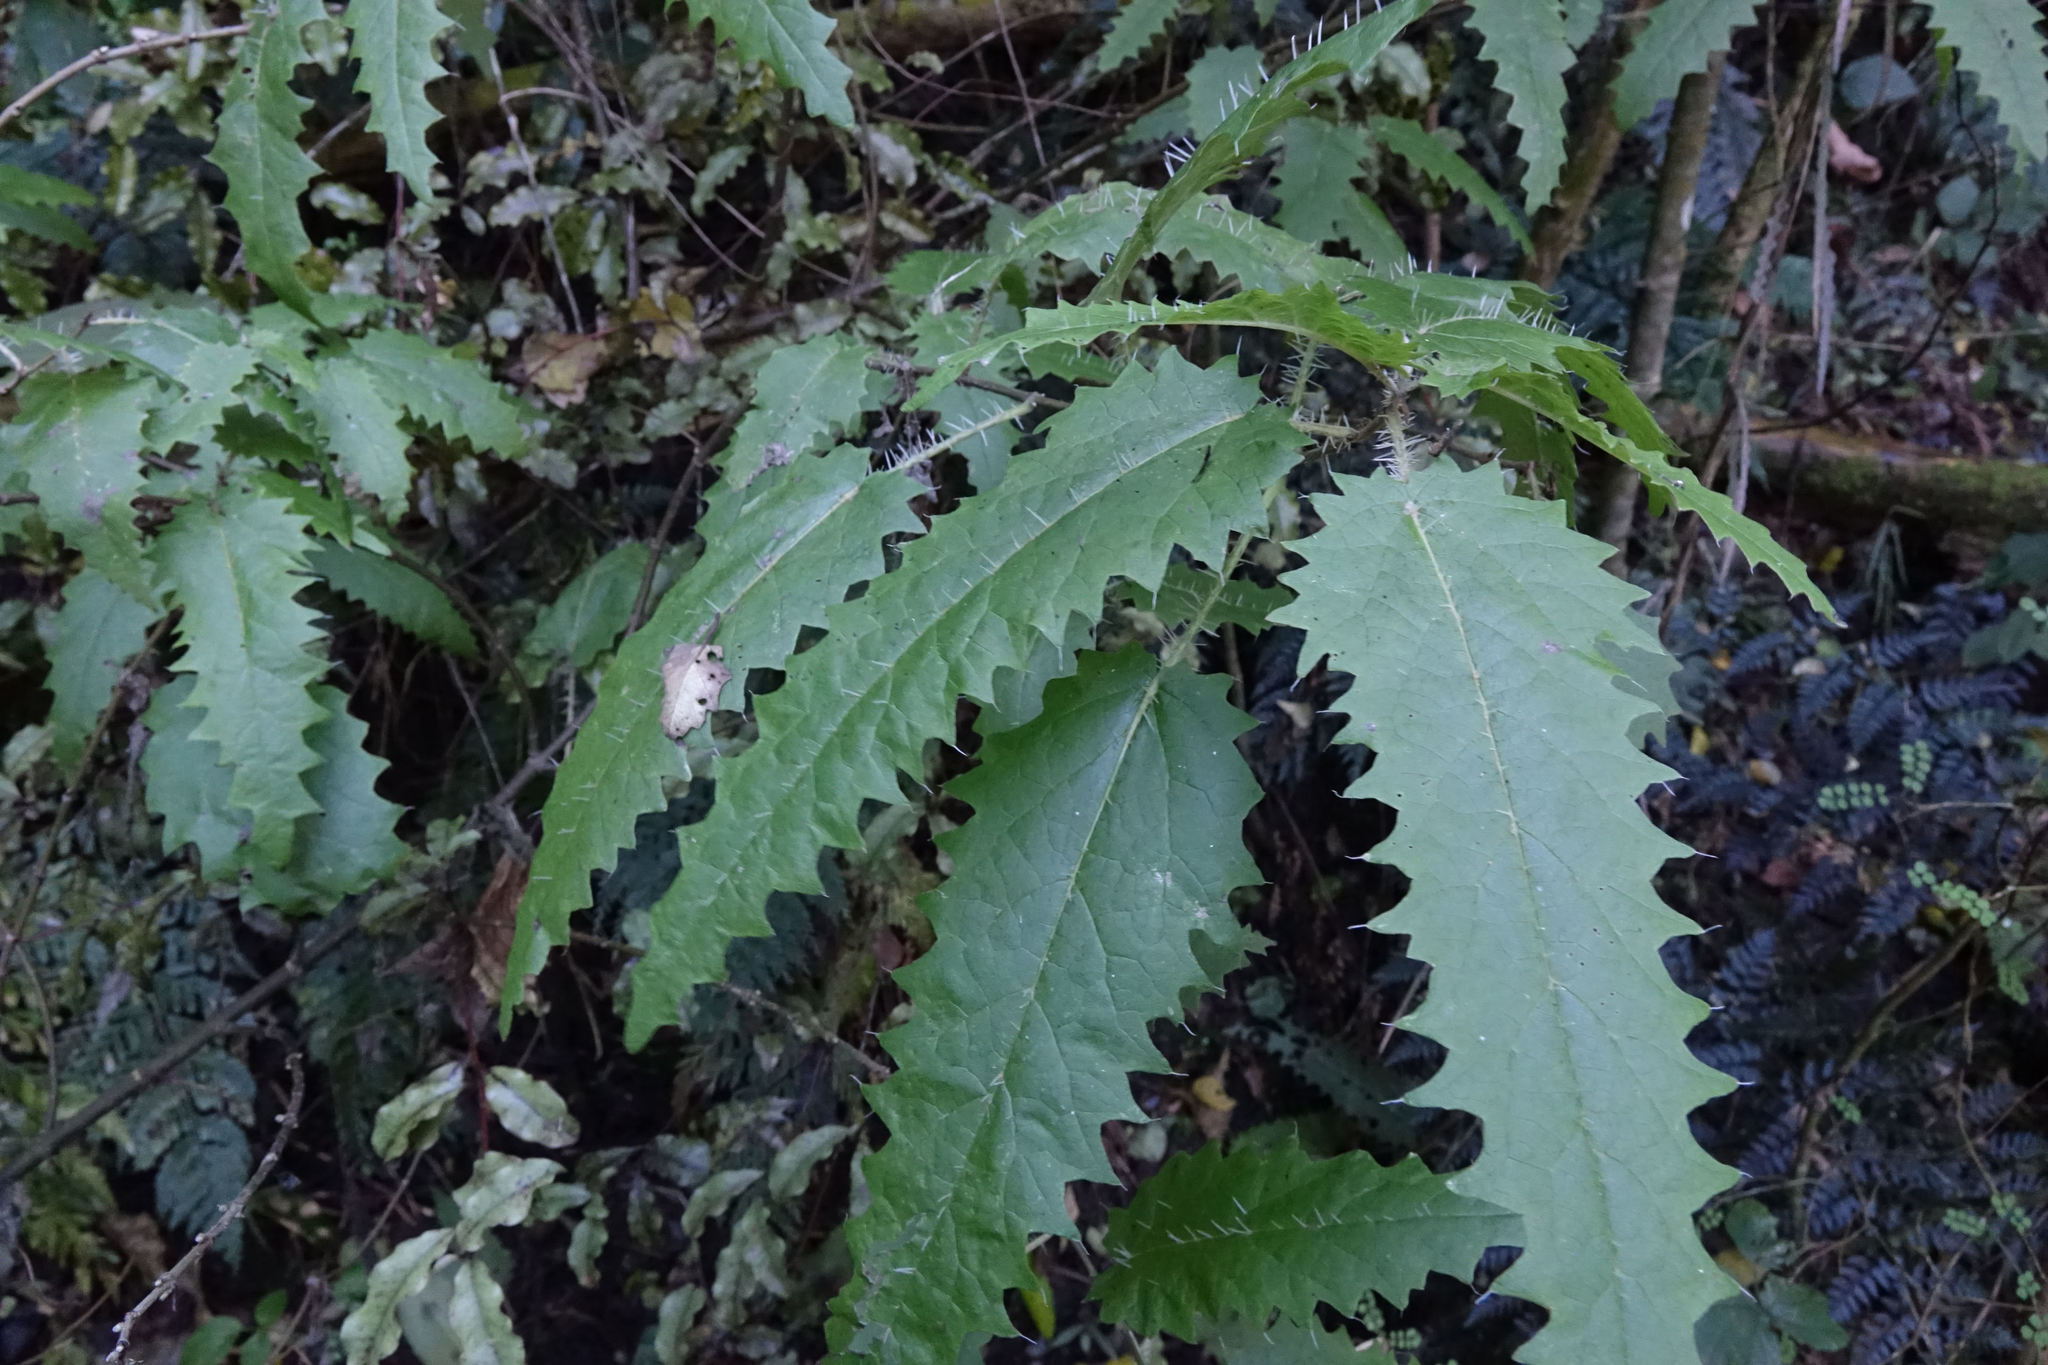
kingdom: Plantae
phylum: Tracheophyta
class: Magnoliopsida
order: Rosales
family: Urticaceae
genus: Urtica
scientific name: Urtica ferox
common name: Tree nettle
